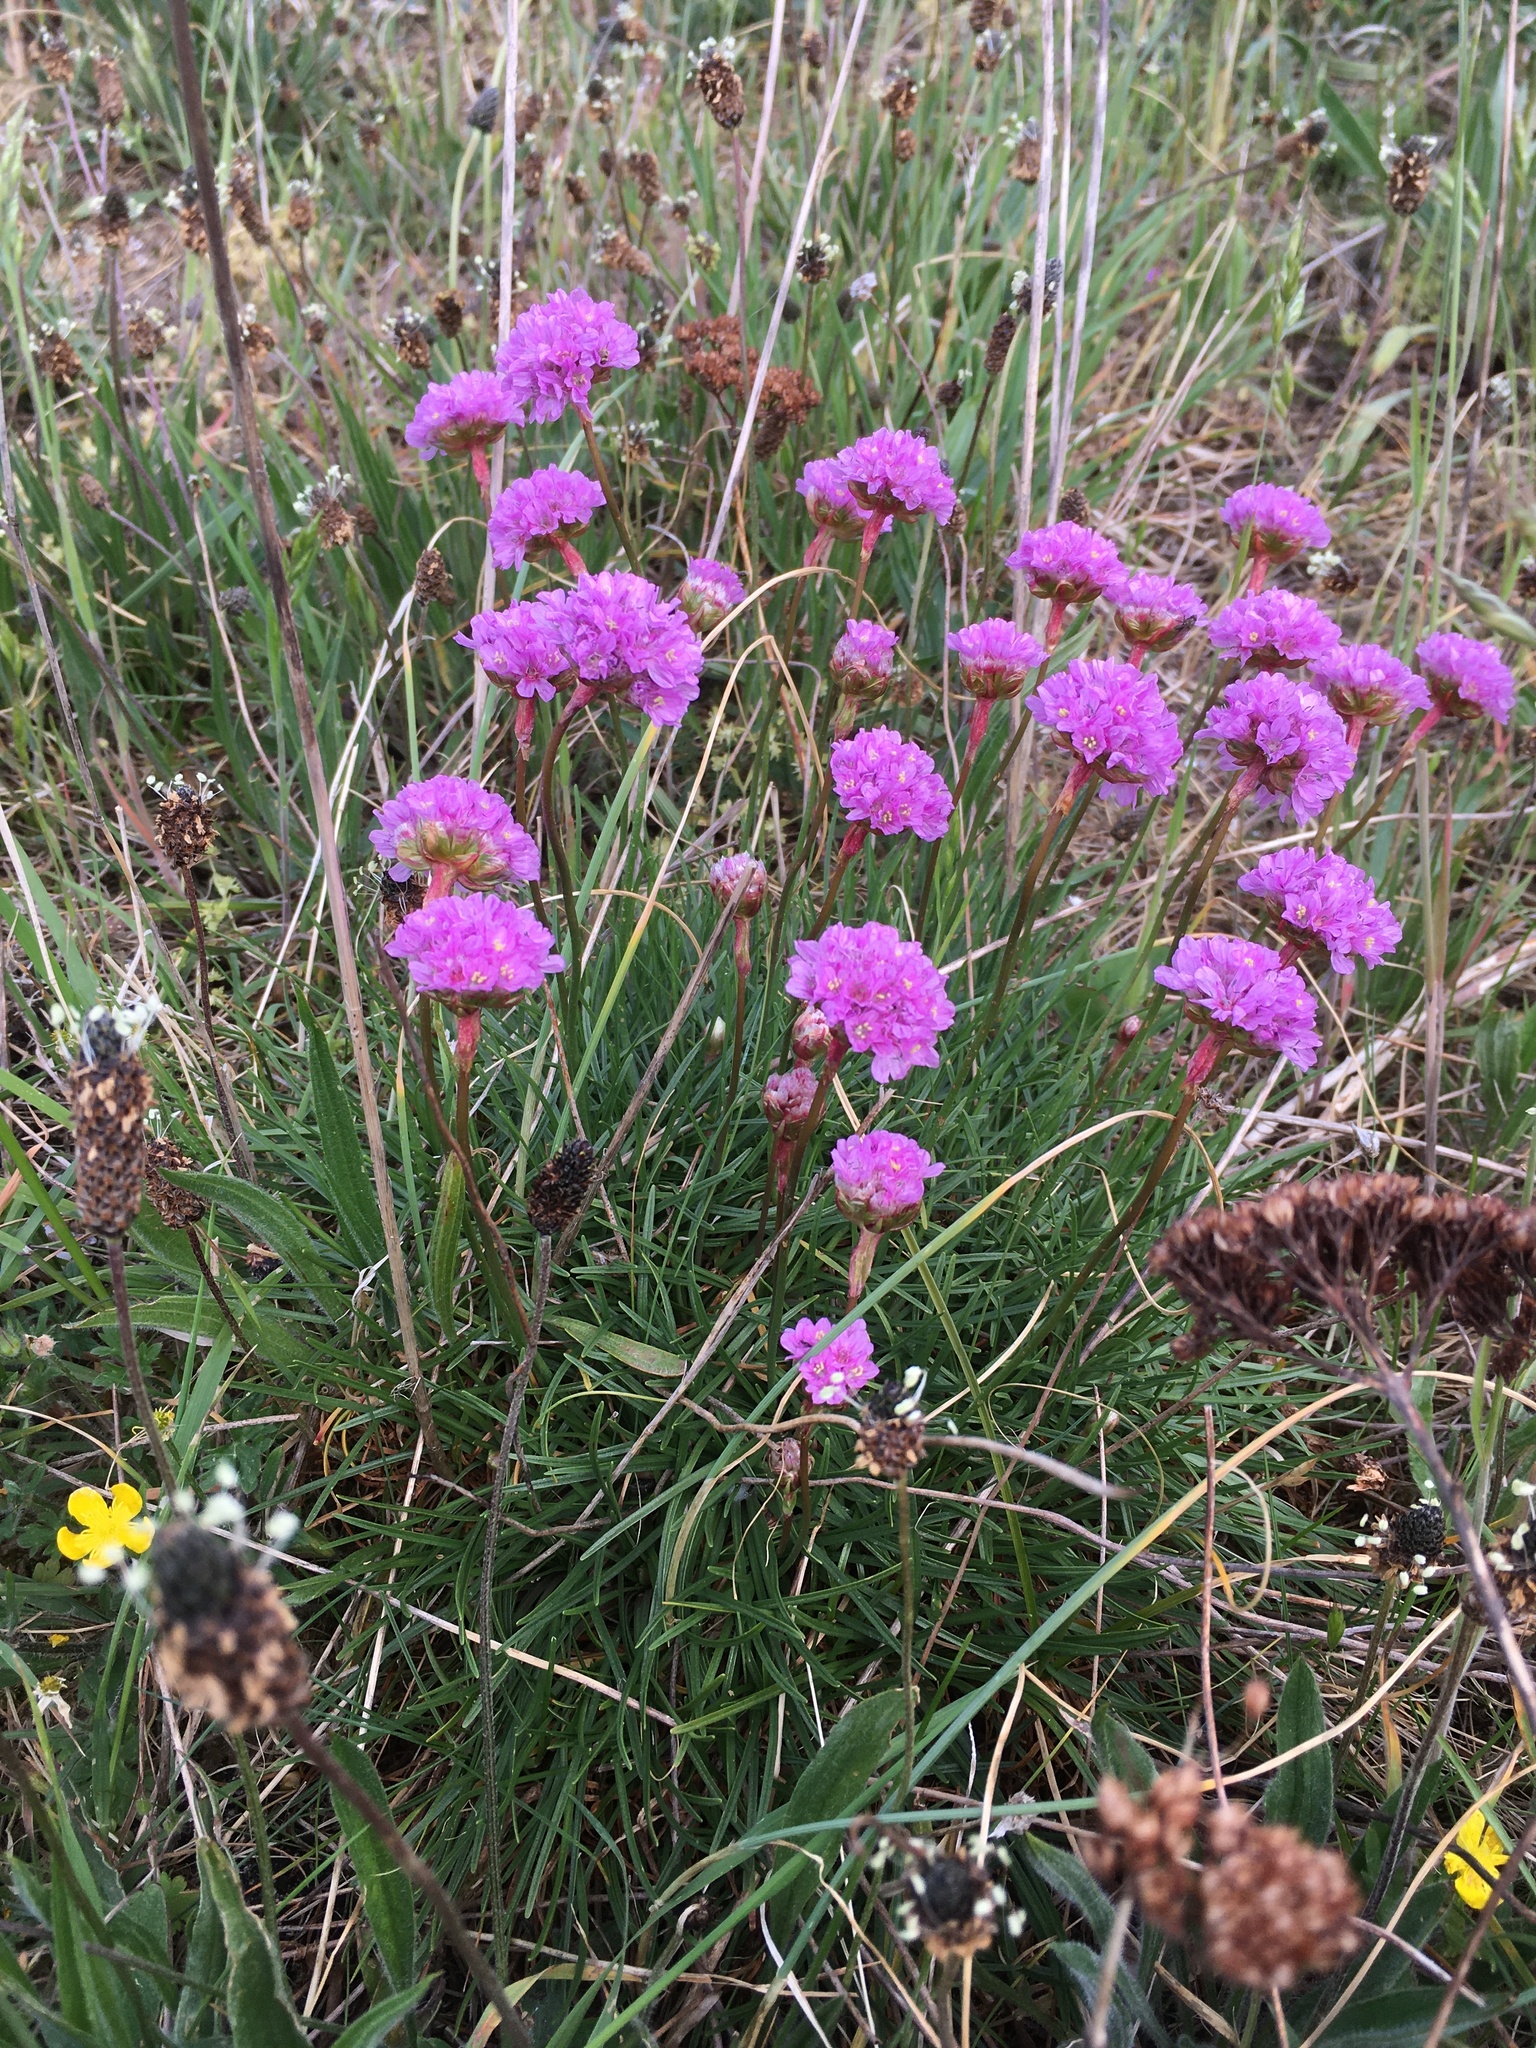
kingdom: Plantae
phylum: Tracheophyta
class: Magnoliopsida
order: Caryophyllales
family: Plumbaginaceae
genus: Armeria
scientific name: Armeria maritima
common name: Thrift
